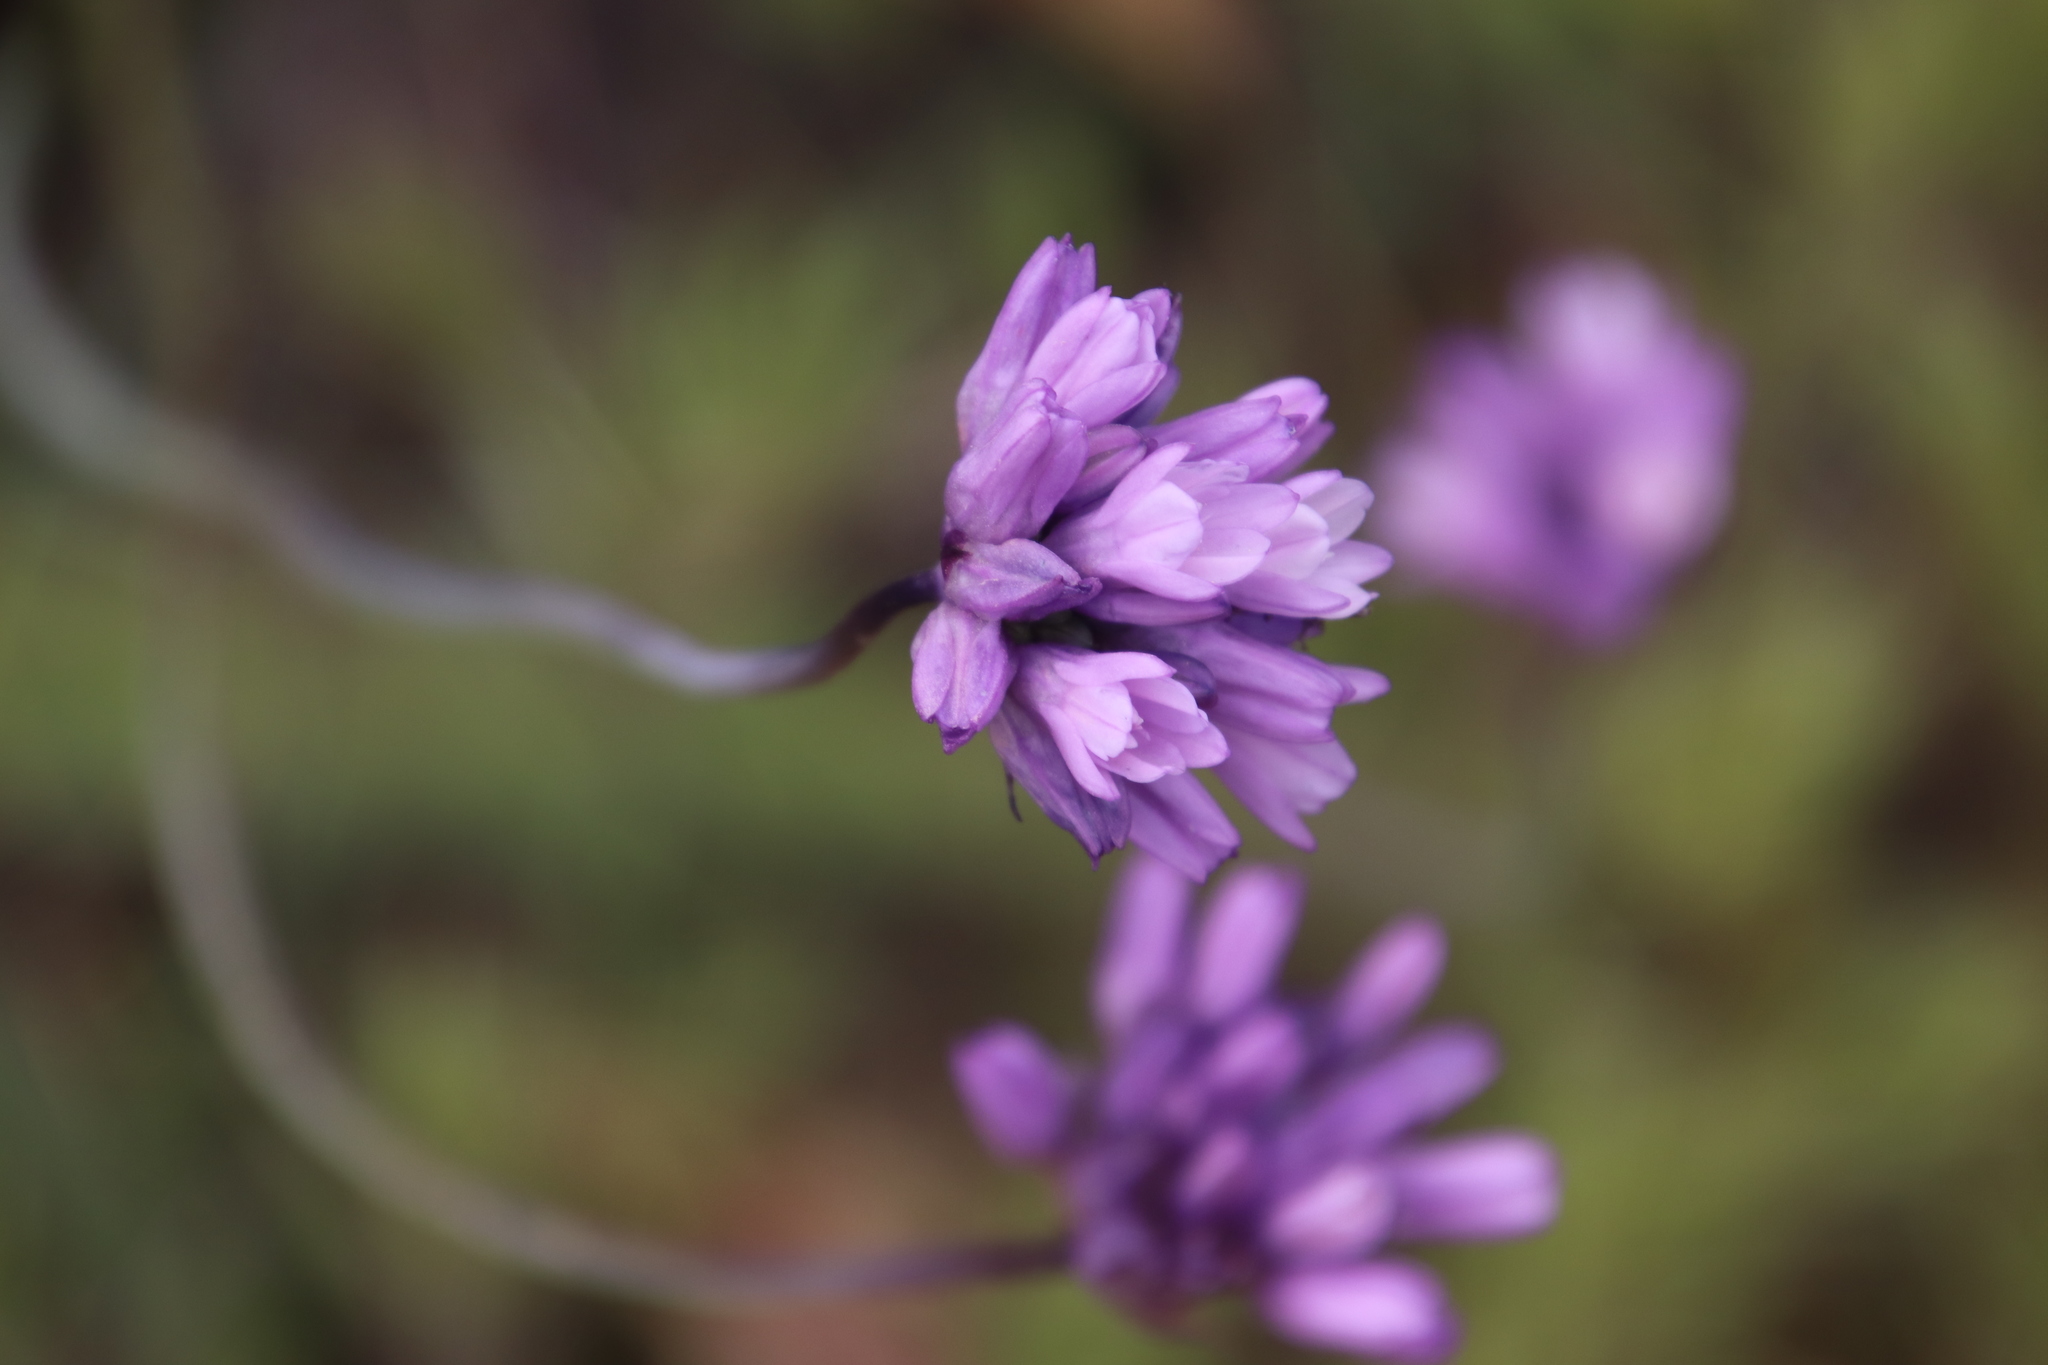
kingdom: Plantae
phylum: Tracheophyta
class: Liliopsida
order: Asparagales
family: Asparagaceae
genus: Dipterostemon
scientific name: Dipterostemon capitatus
